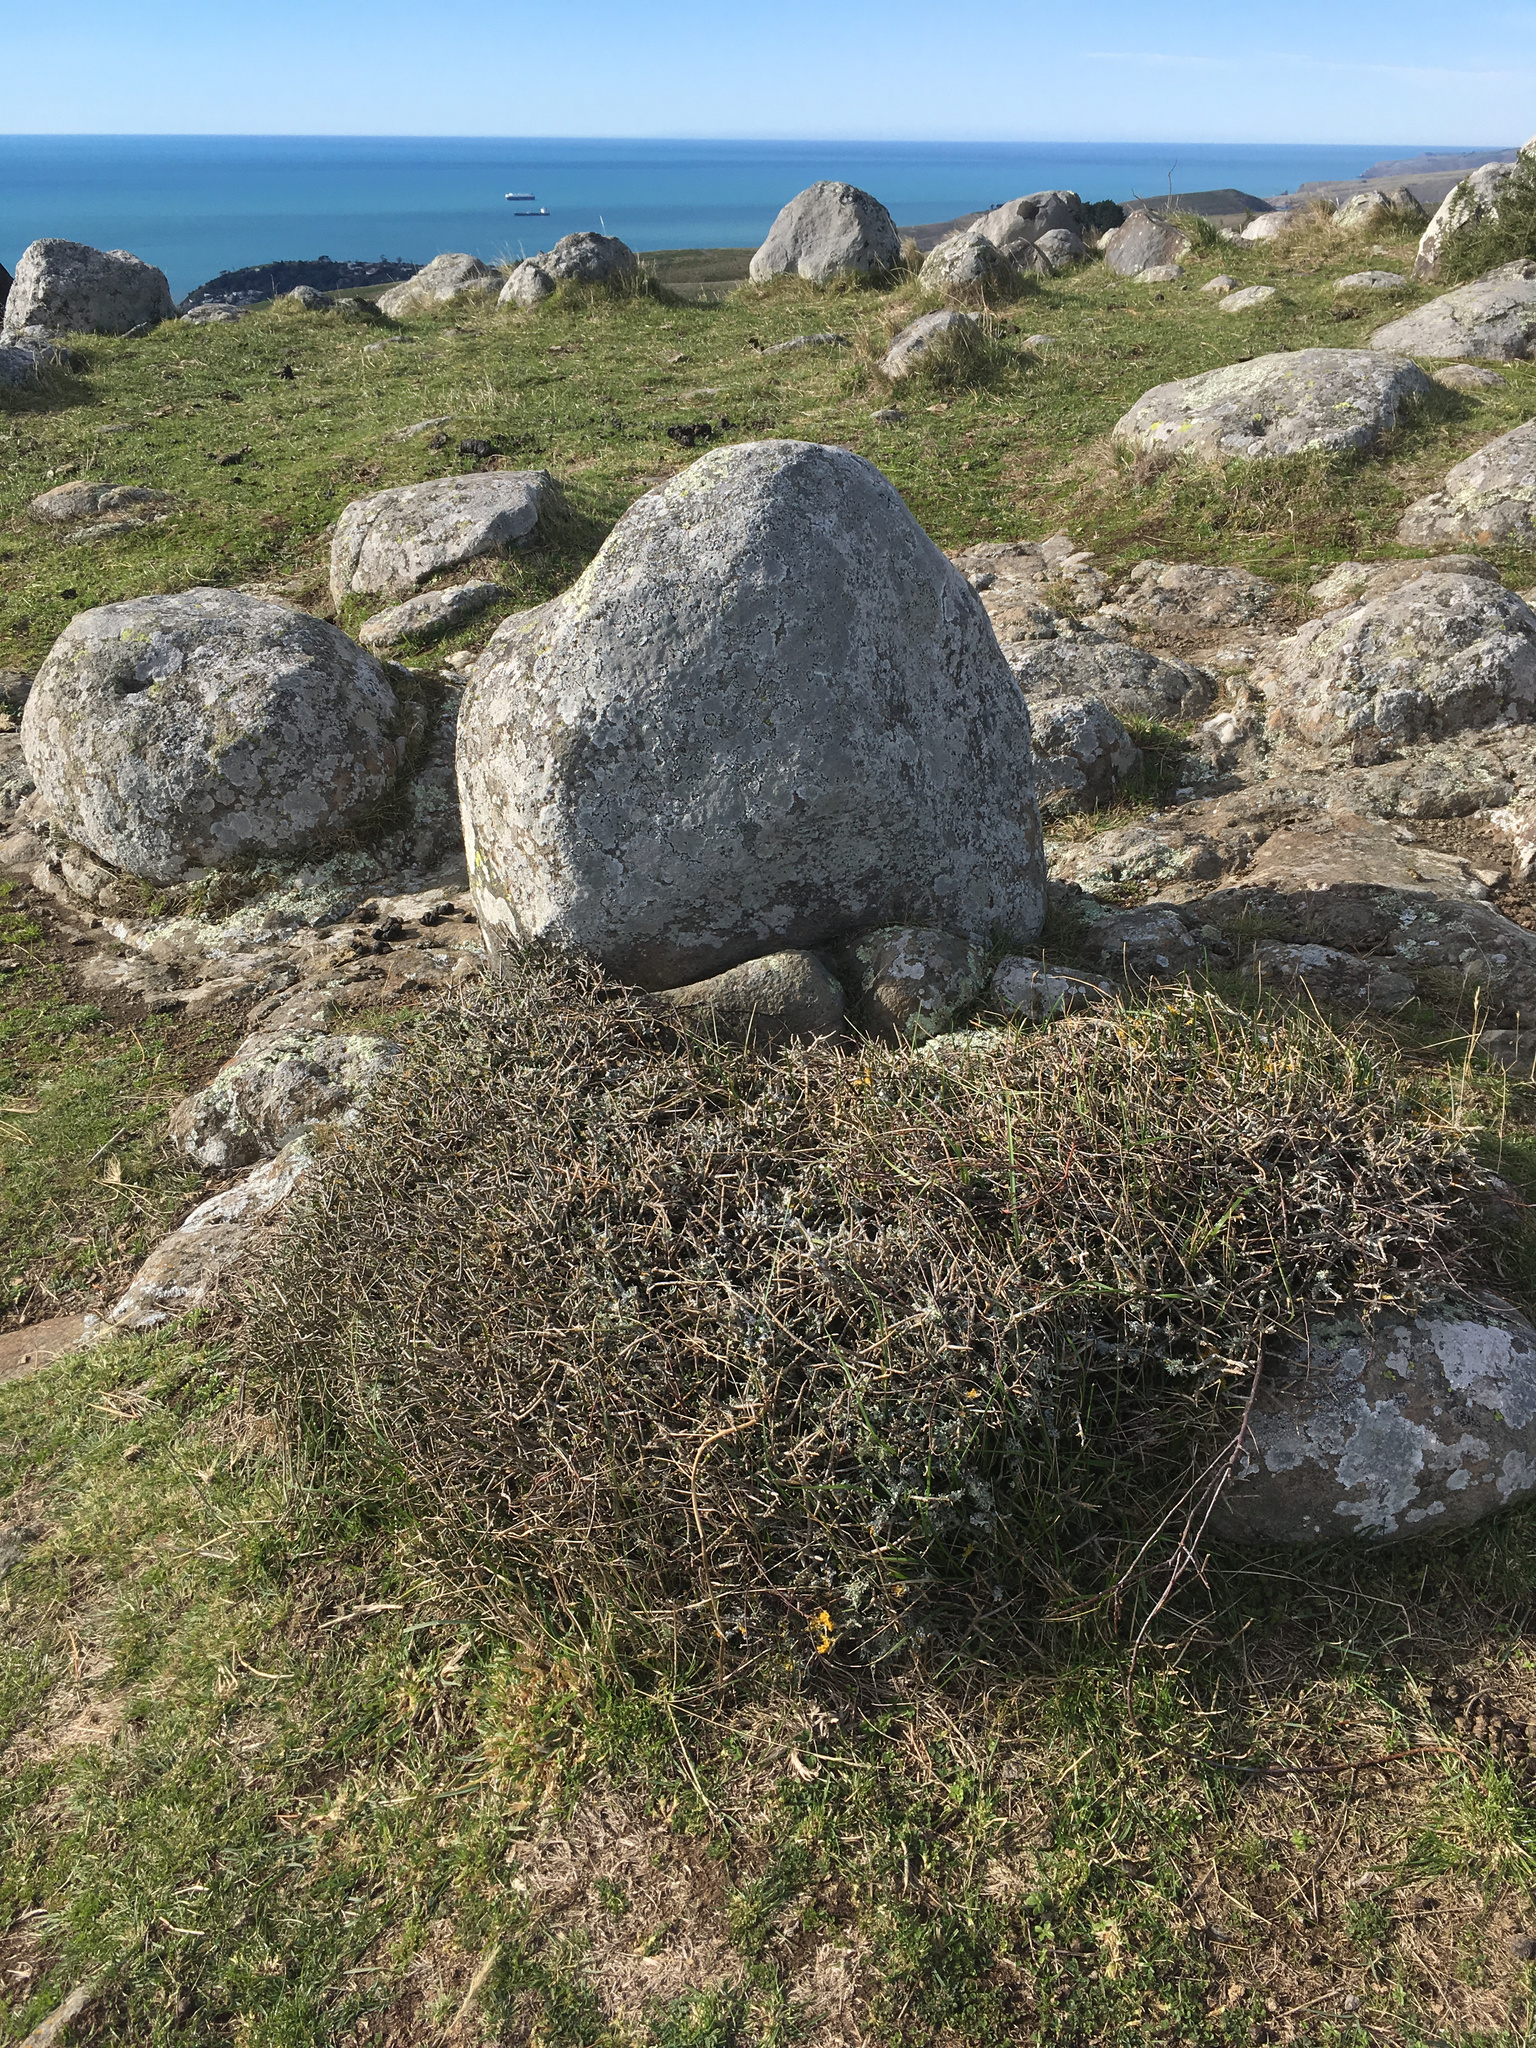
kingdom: Plantae
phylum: Tracheophyta
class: Magnoliopsida
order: Malpighiales
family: Violaceae
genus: Melicytus
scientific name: Melicytus alpinus
